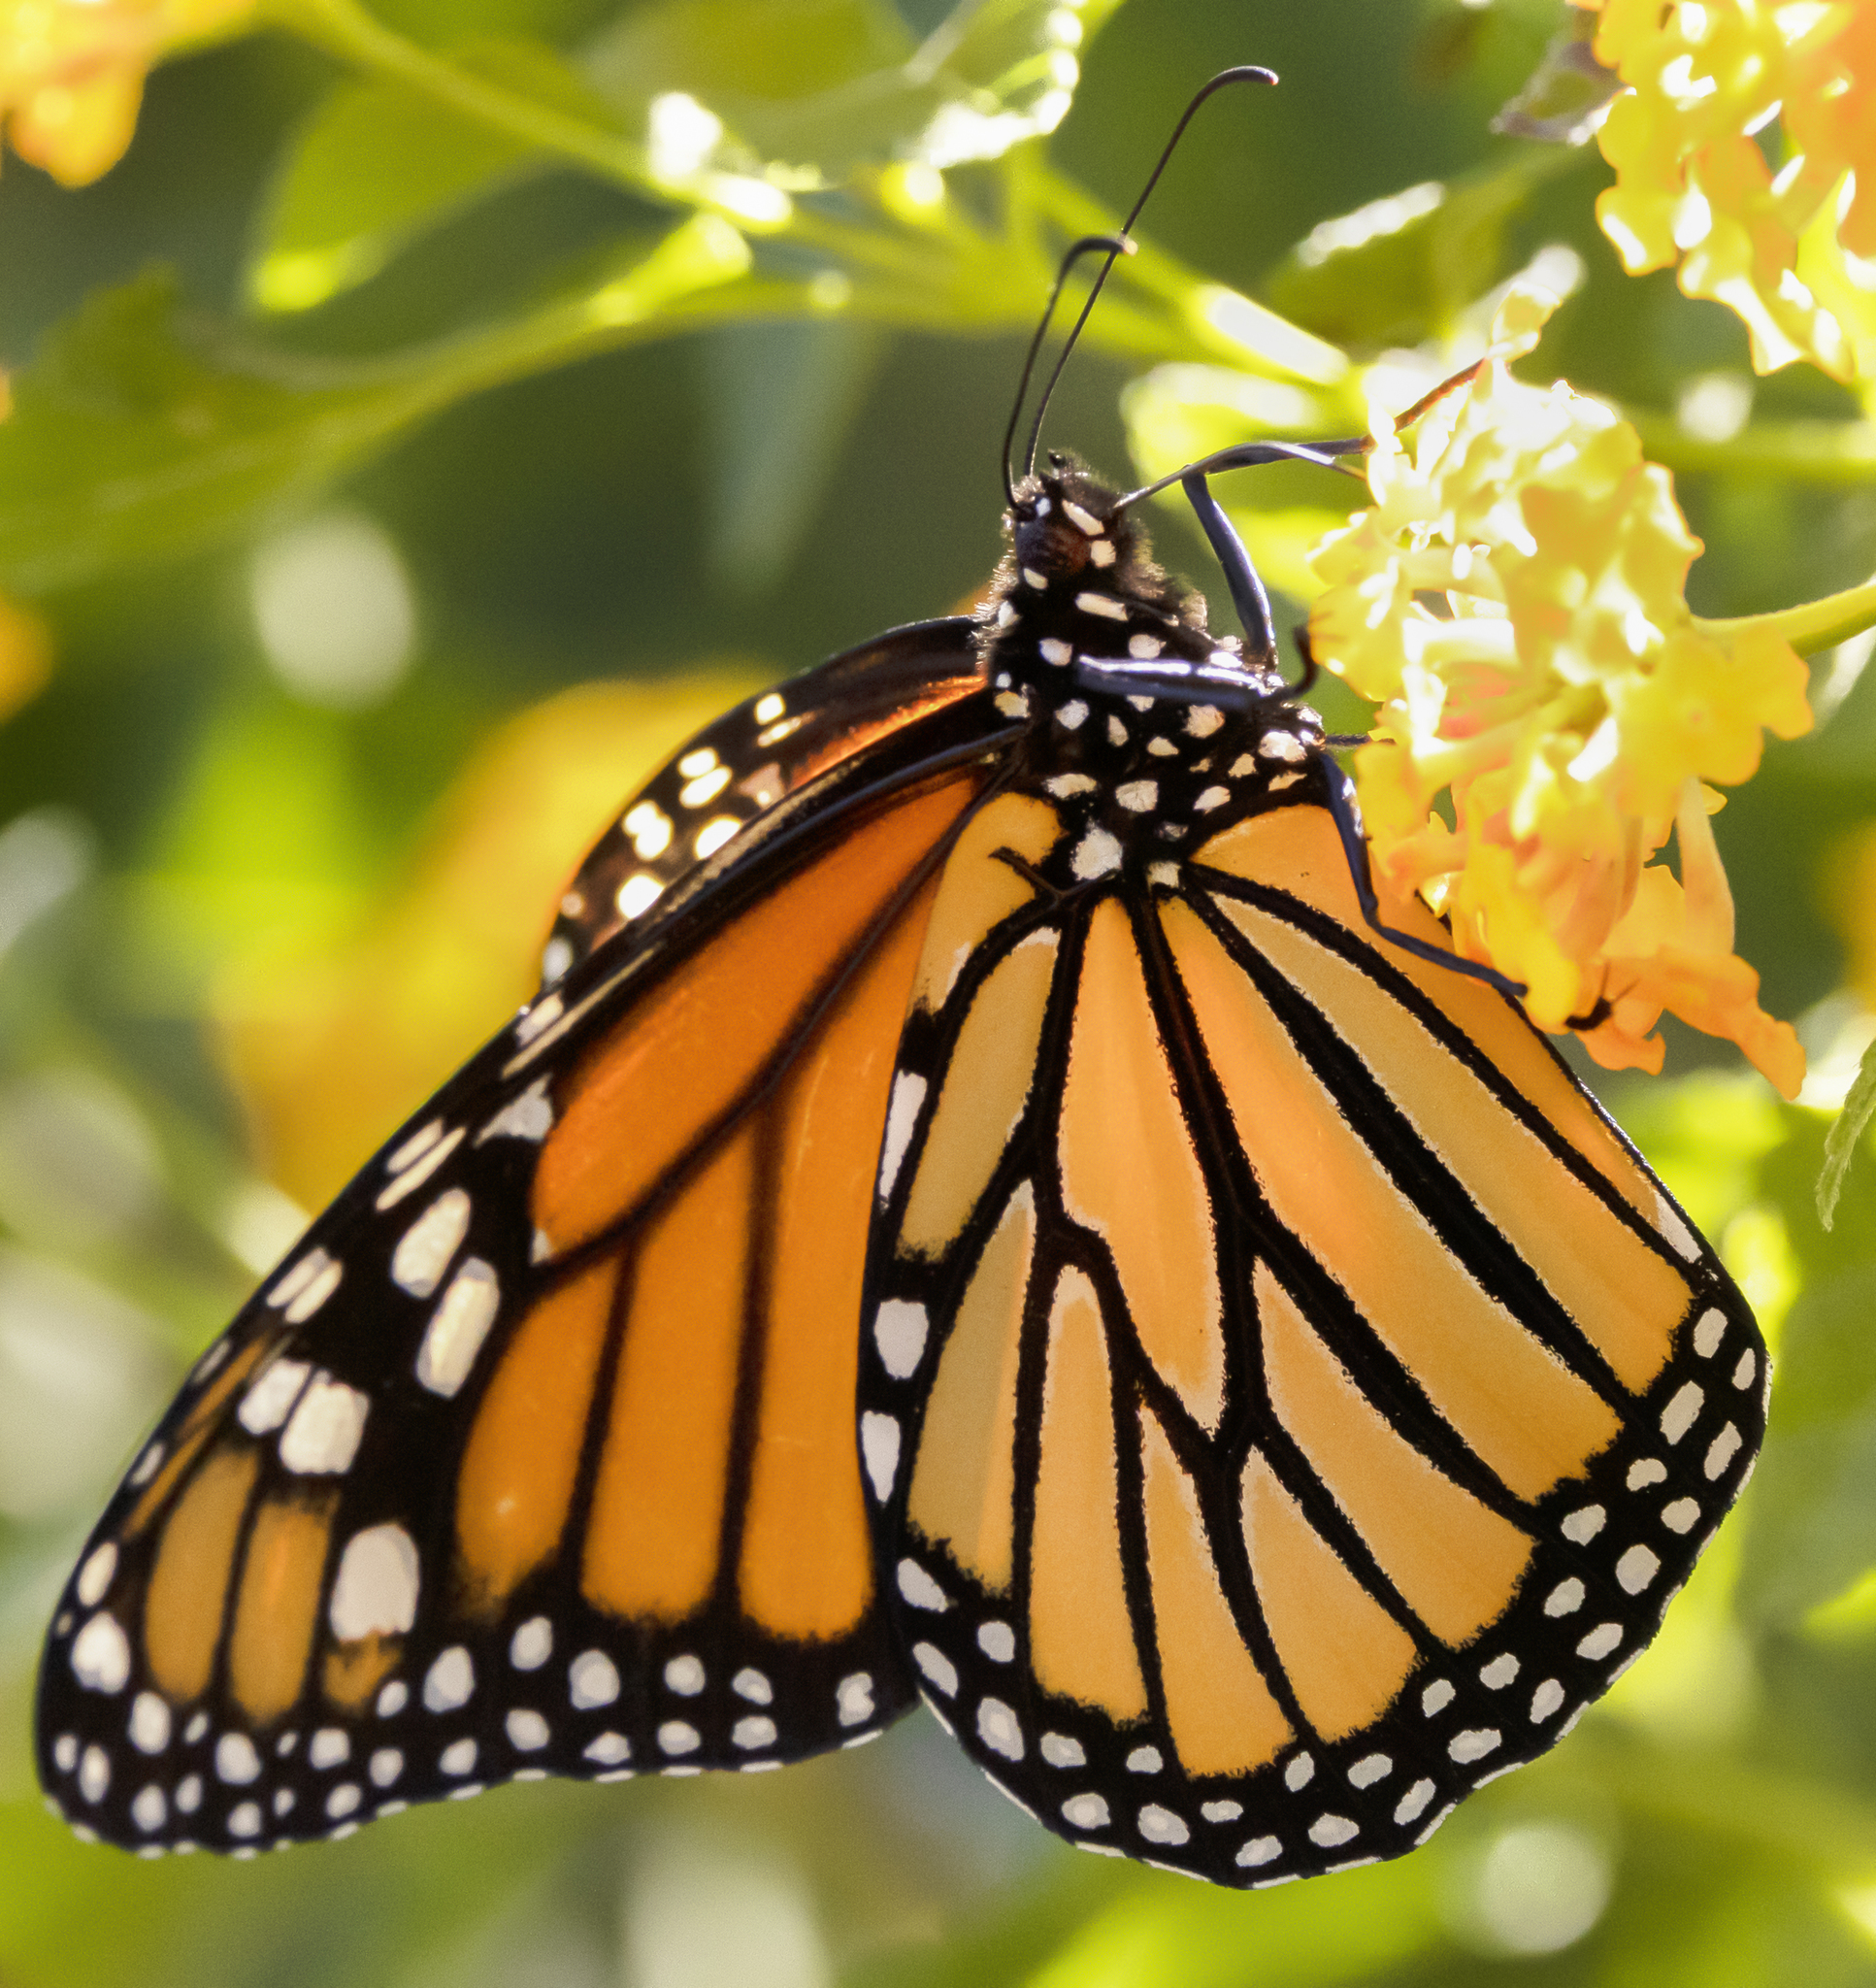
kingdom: Animalia
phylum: Arthropoda
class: Insecta
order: Lepidoptera
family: Nymphalidae
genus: Danaus
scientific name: Danaus plexippus
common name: Monarch
